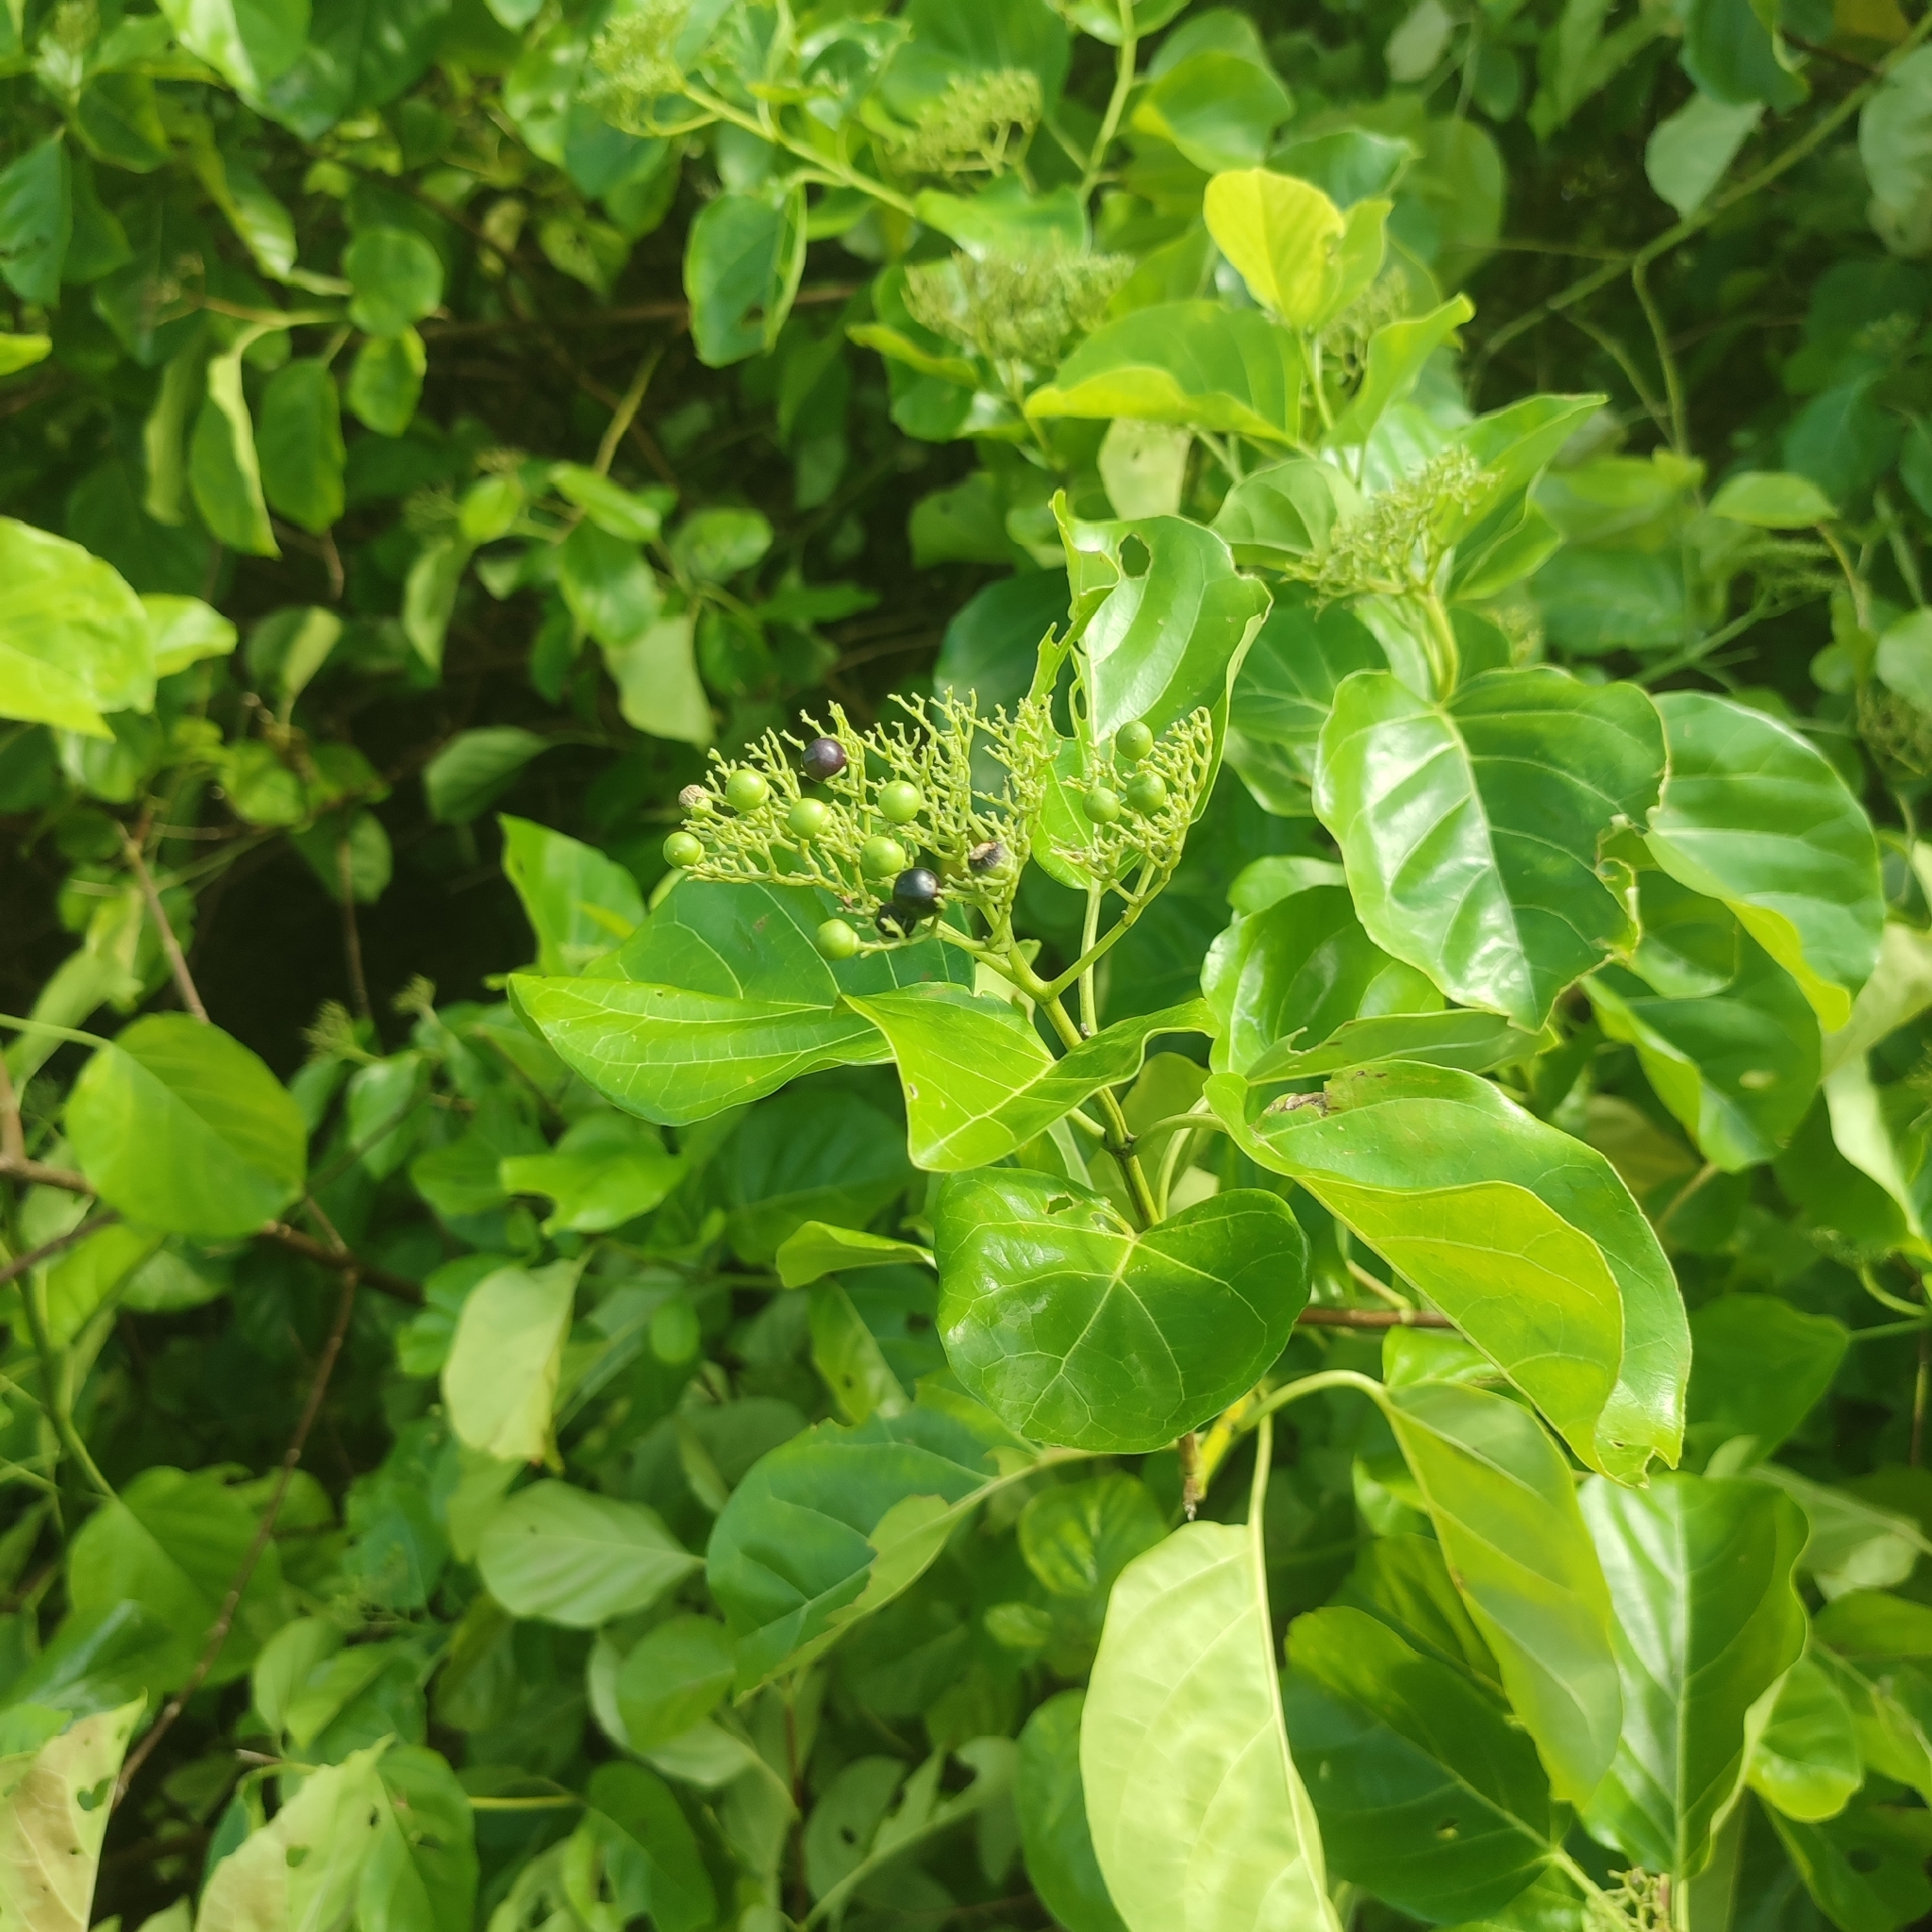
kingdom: Plantae
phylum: Tracheophyta
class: Magnoliopsida
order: Lamiales
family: Lamiaceae
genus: Premna
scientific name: Premna serratifolia
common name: Bastard guelder
